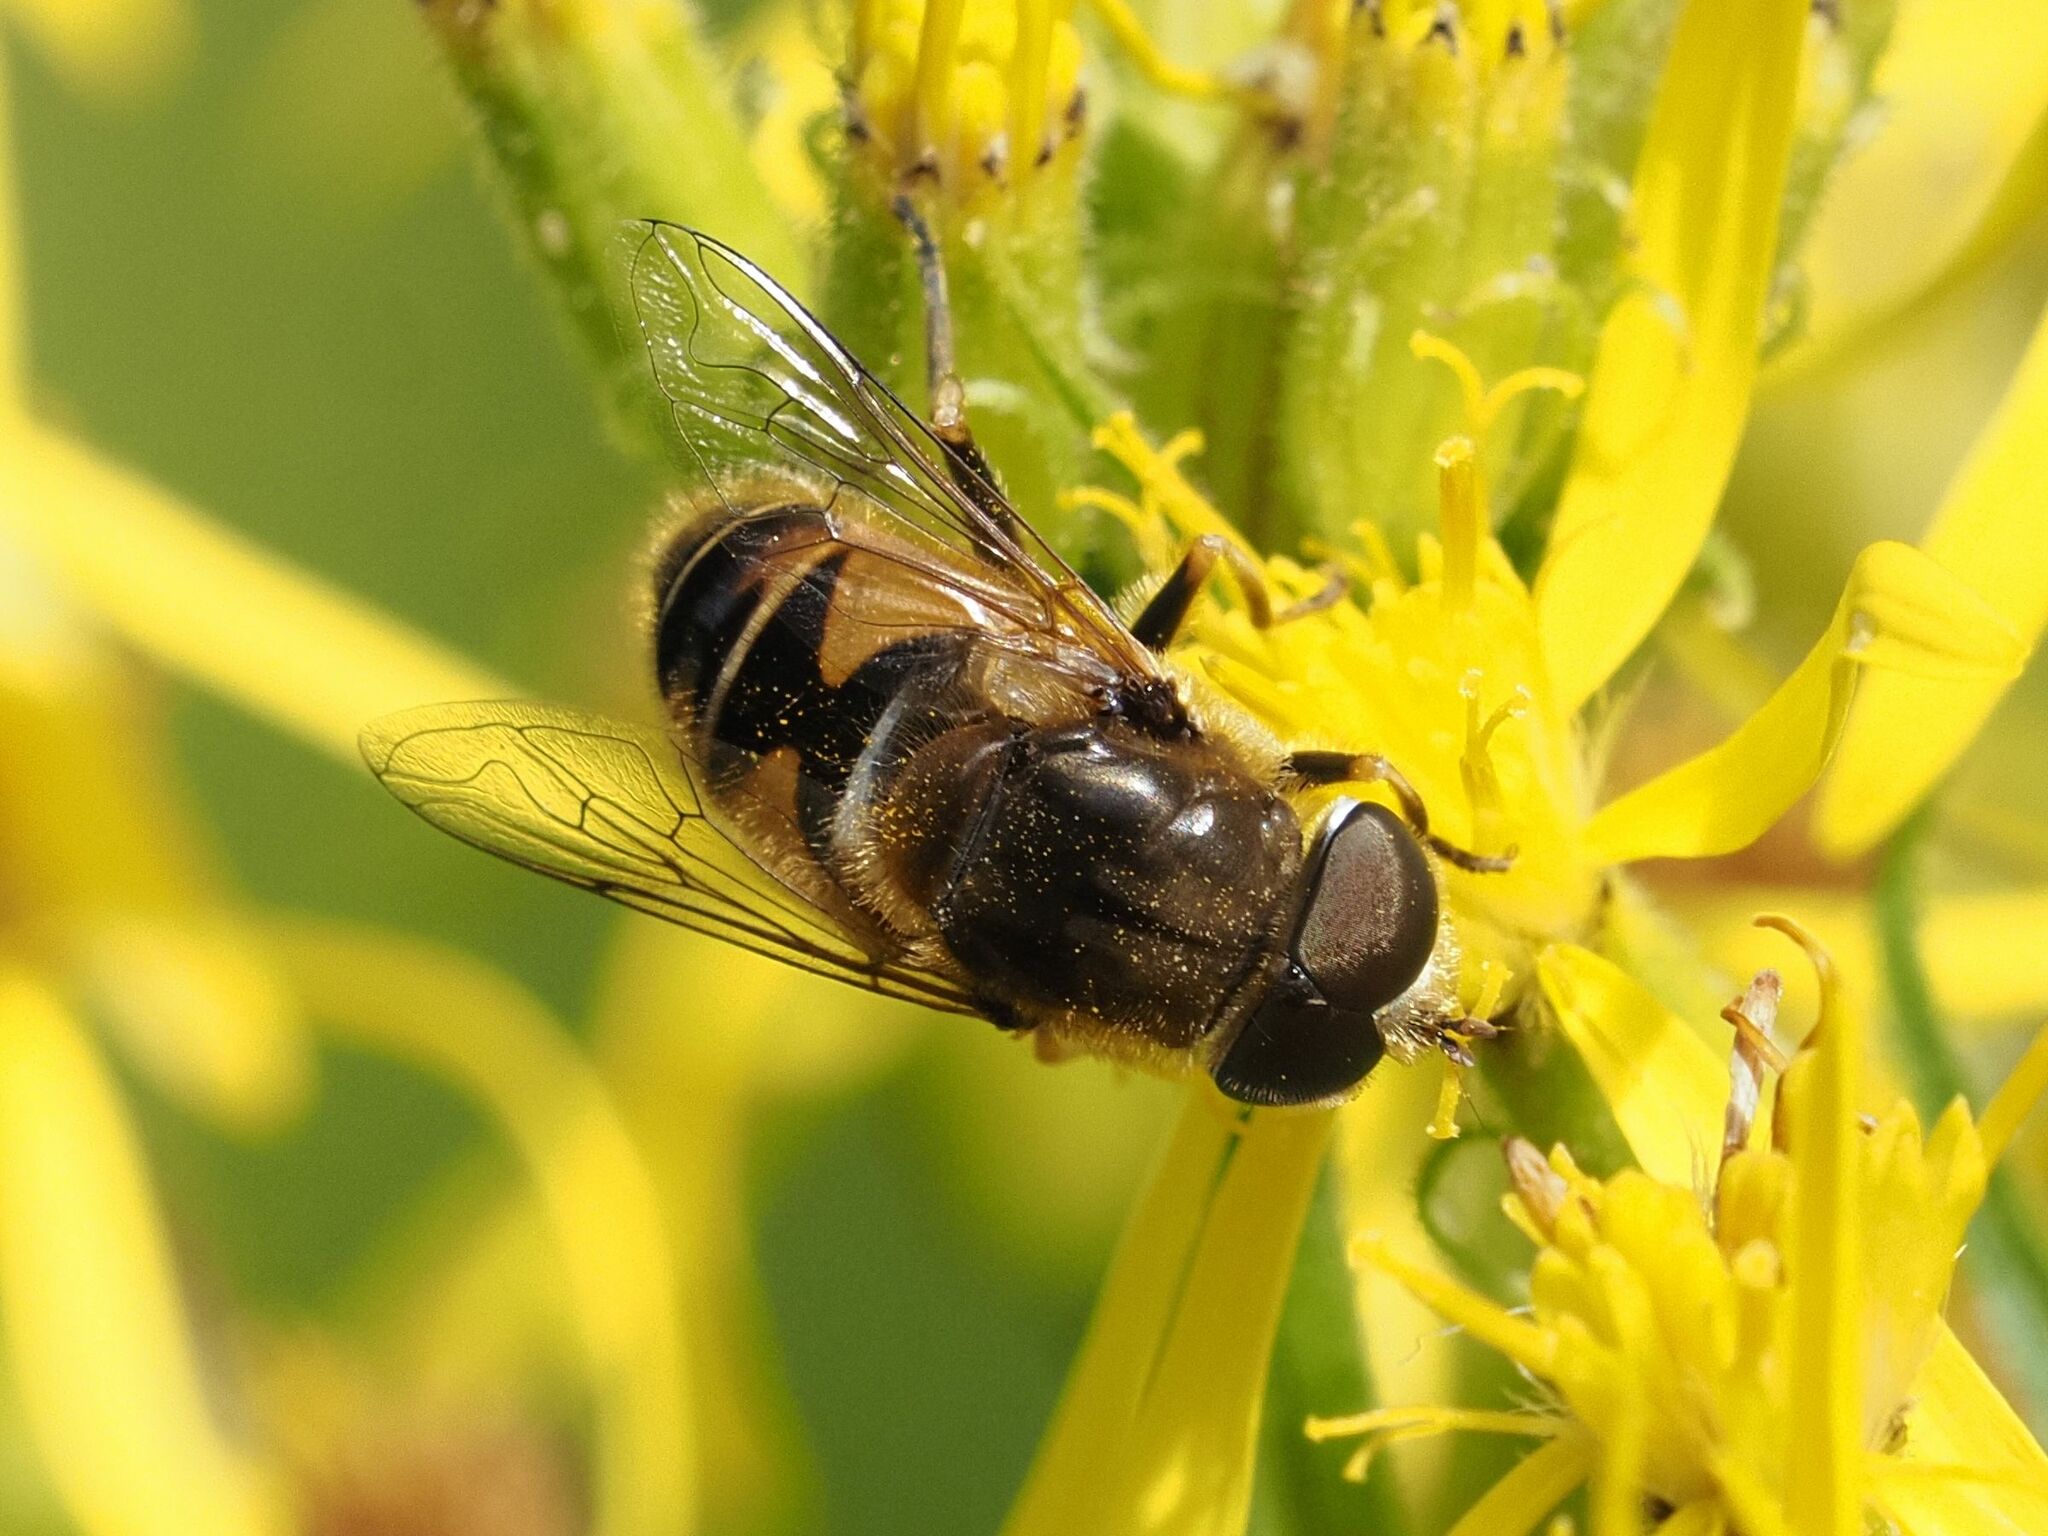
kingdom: Animalia
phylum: Arthropoda
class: Insecta
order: Diptera
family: Syrphidae
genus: Eristalis
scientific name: Eristalis nemorum
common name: Orange-spined drone fly
